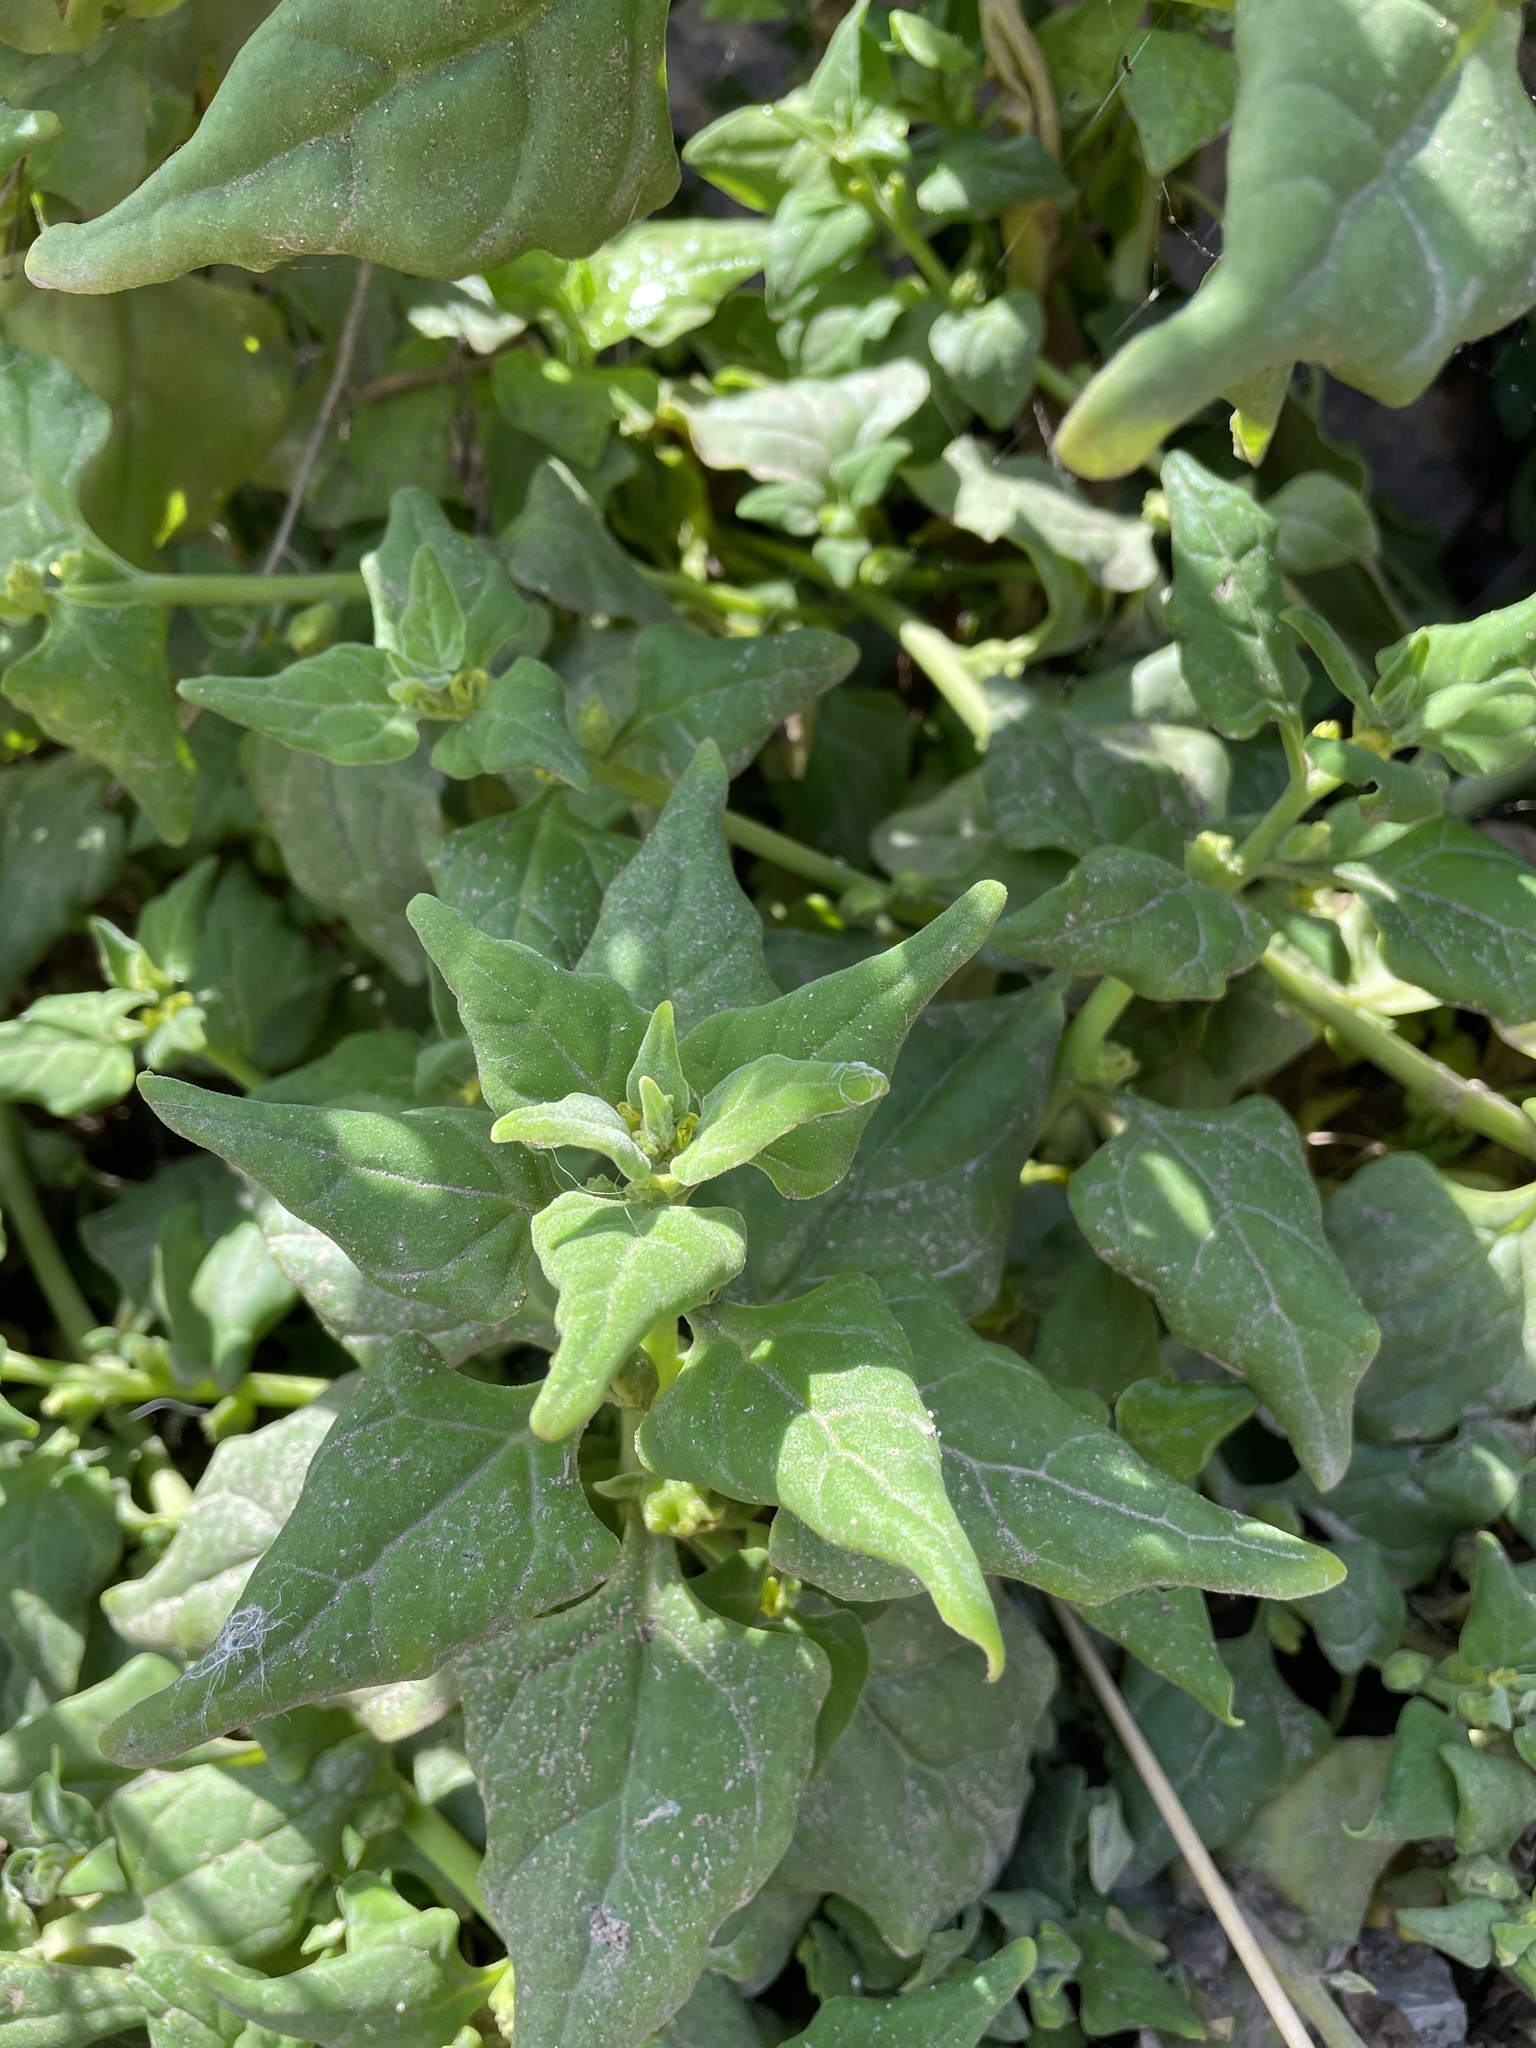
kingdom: Plantae
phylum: Tracheophyta
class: Magnoliopsida
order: Caryophyllales
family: Aizoaceae
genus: Tetragonia
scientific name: Tetragonia tetragonoides
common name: New zealand-spinach
